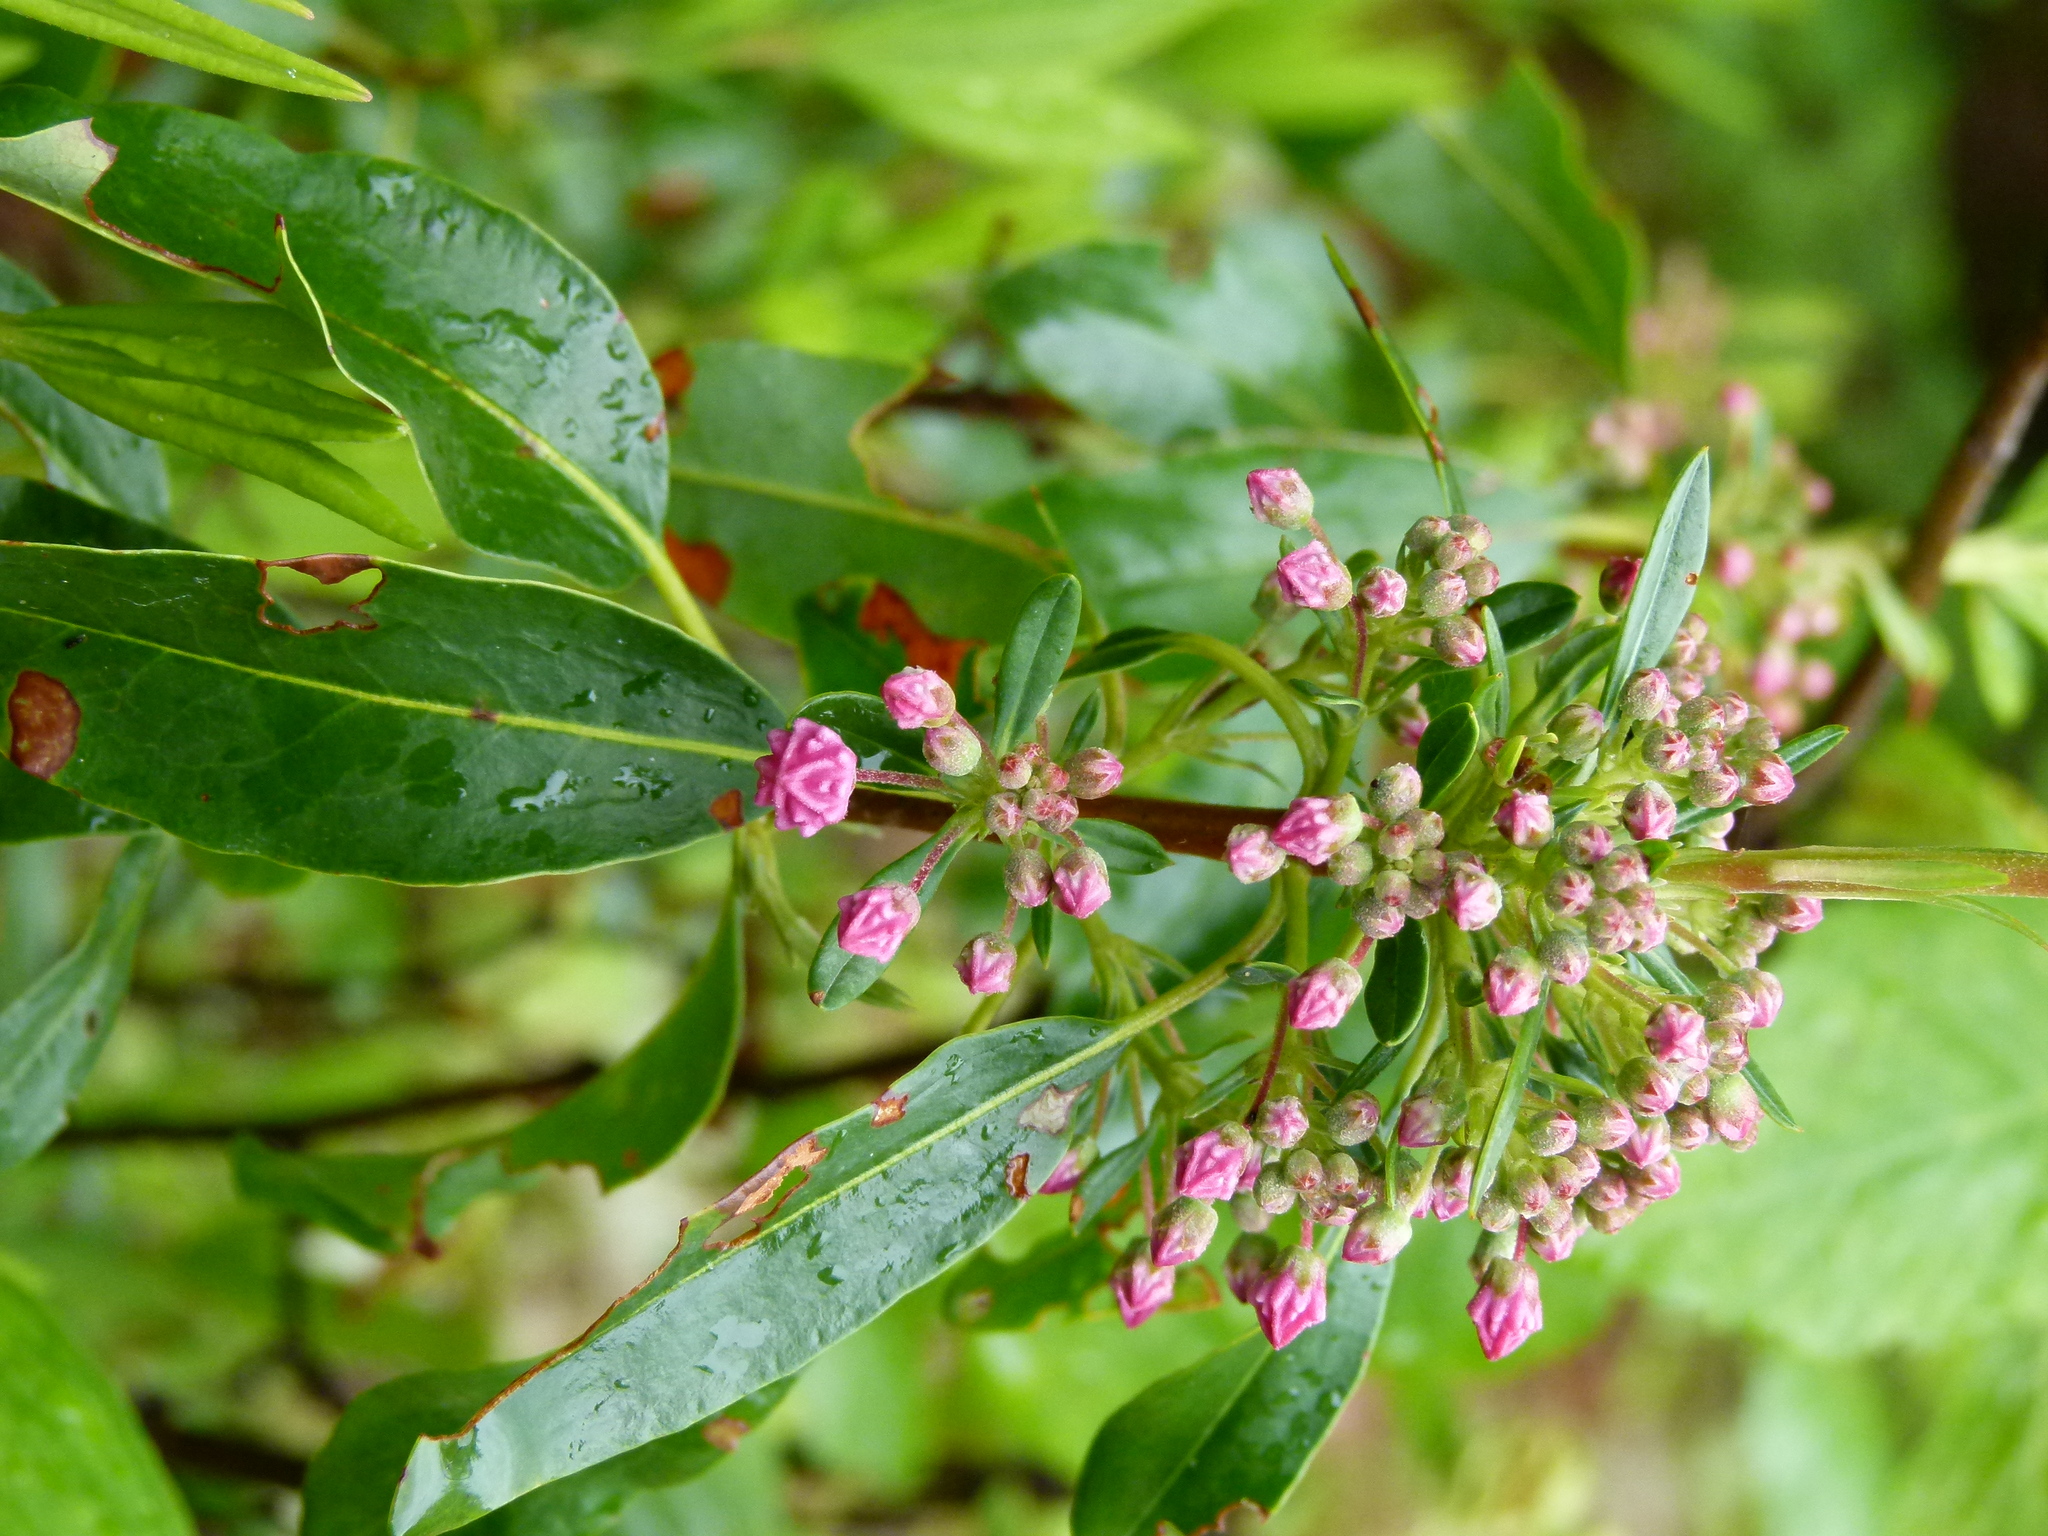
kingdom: Plantae
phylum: Tracheophyta
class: Magnoliopsida
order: Ericales
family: Ericaceae
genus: Kalmia
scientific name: Kalmia angustifolia
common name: Sheep-laurel
